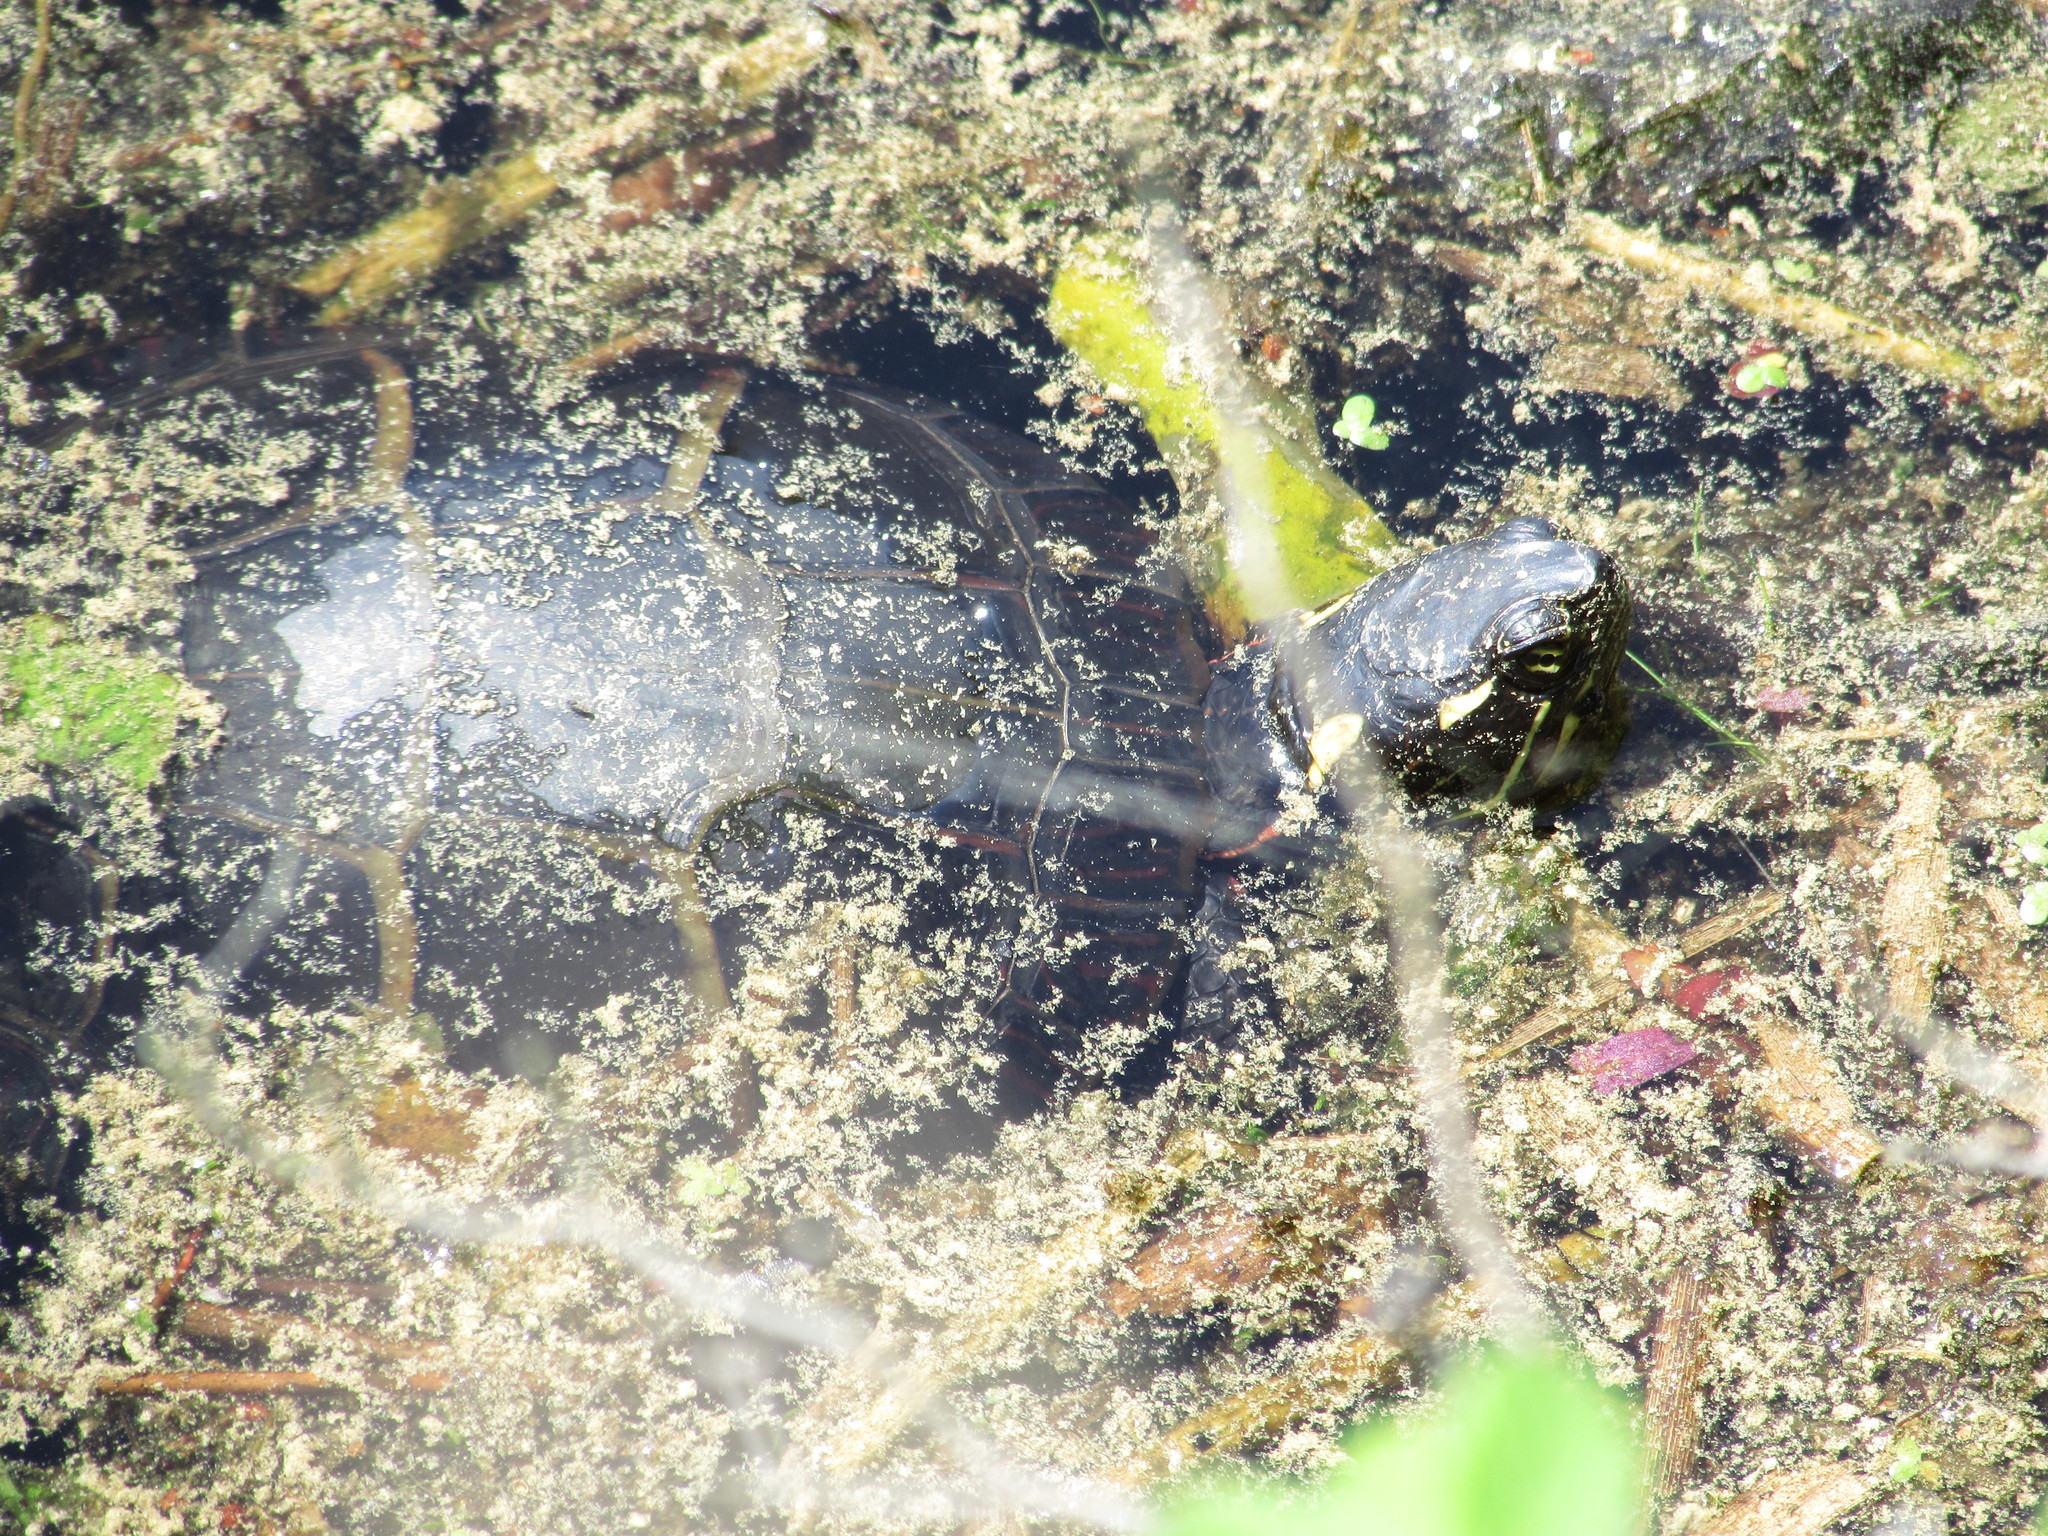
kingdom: Animalia
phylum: Chordata
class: Testudines
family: Emydidae
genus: Chrysemys
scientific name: Chrysemys picta
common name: Painted turtle
